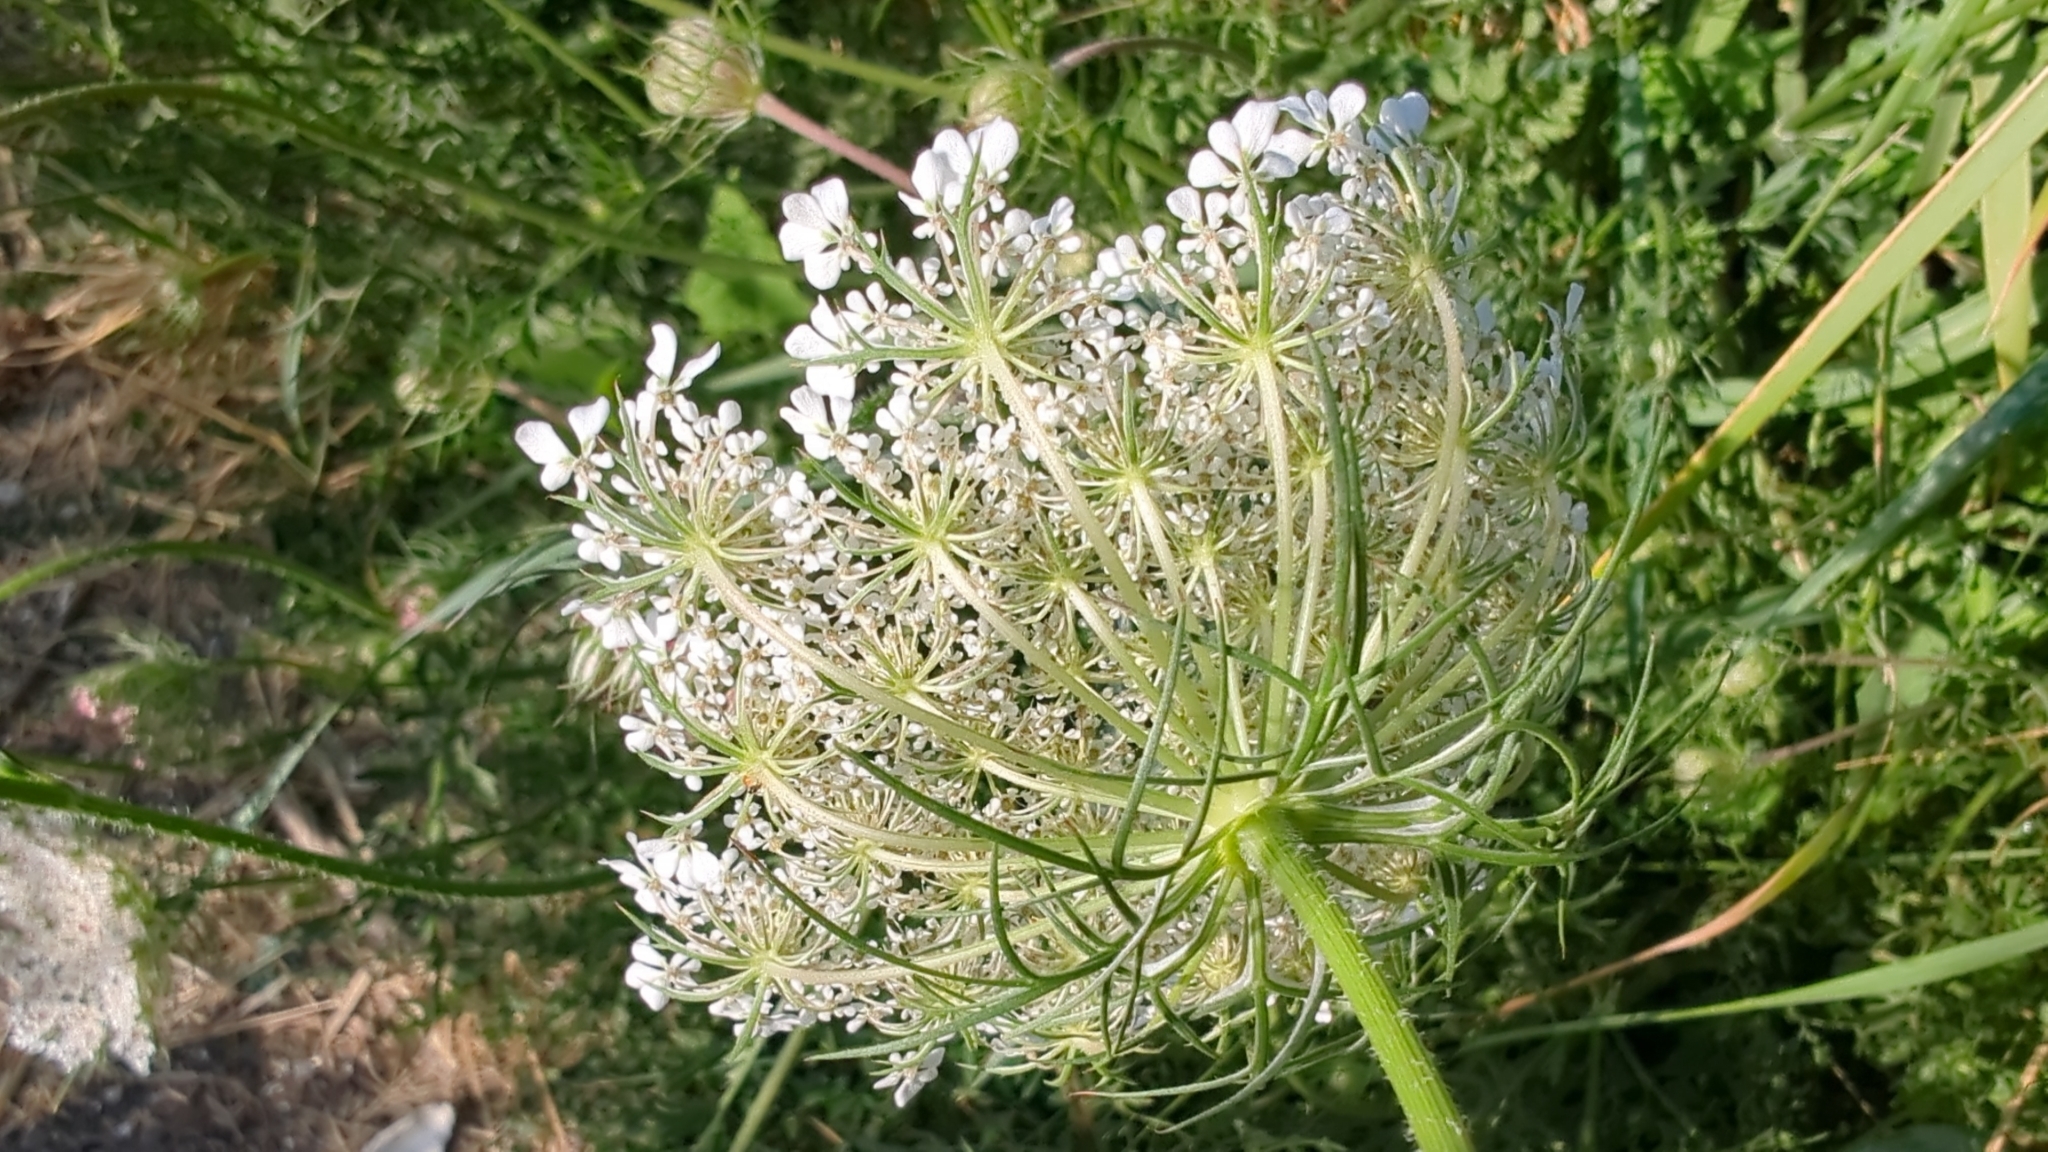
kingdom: Plantae
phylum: Tracheophyta
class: Magnoliopsida
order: Apiales
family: Apiaceae
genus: Daucus
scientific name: Daucus carota
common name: Wild carrot
